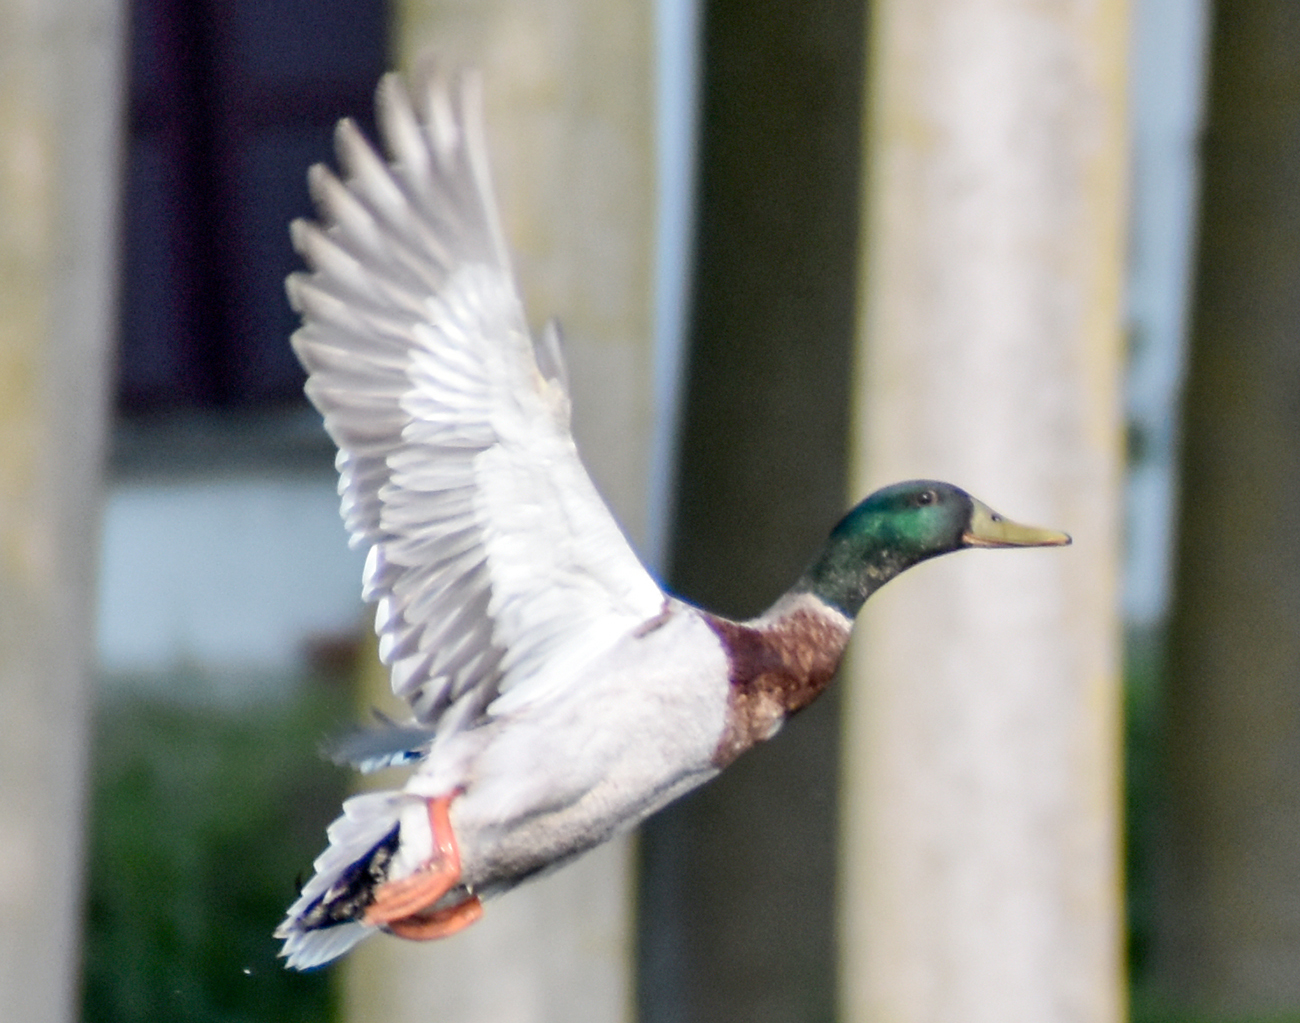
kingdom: Animalia
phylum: Chordata
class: Aves
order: Anseriformes
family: Anatidae
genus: Anas
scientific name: Anas platyrhynchos
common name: Mallard
